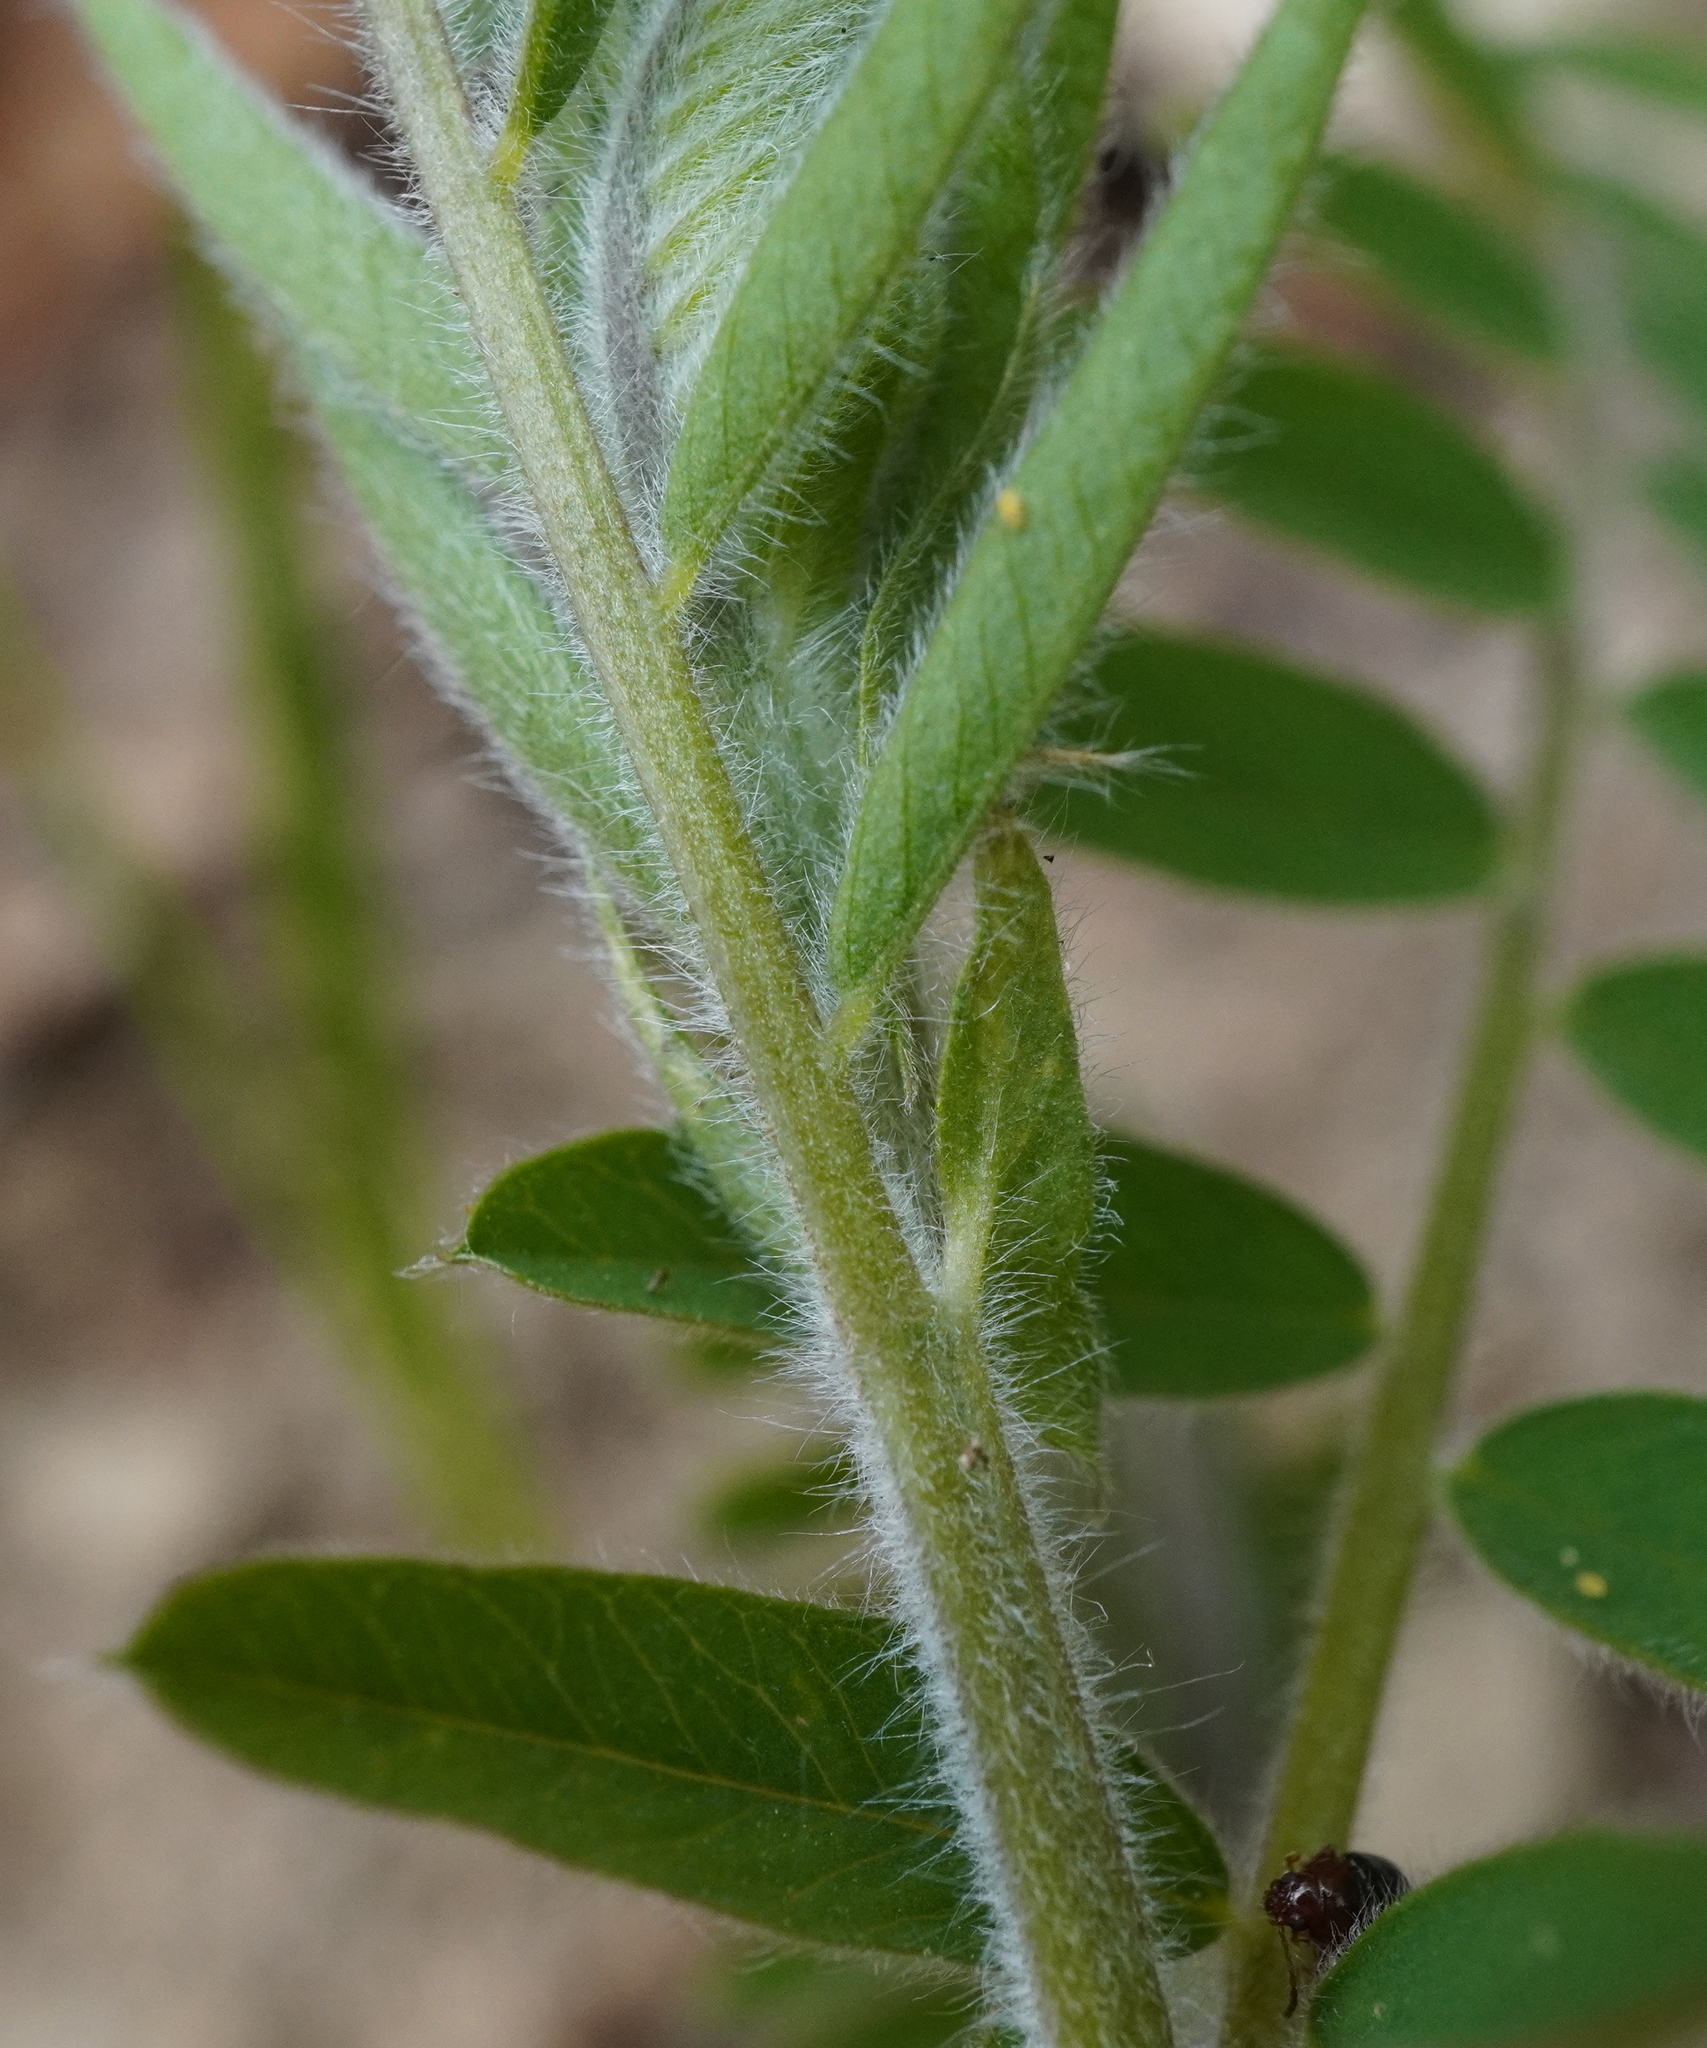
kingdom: Plantae
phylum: Tracheophyta
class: Magnoliopsida
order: Fabales
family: Fabaceae
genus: Vicia
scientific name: Vicia villosa
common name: Fodder vetch
